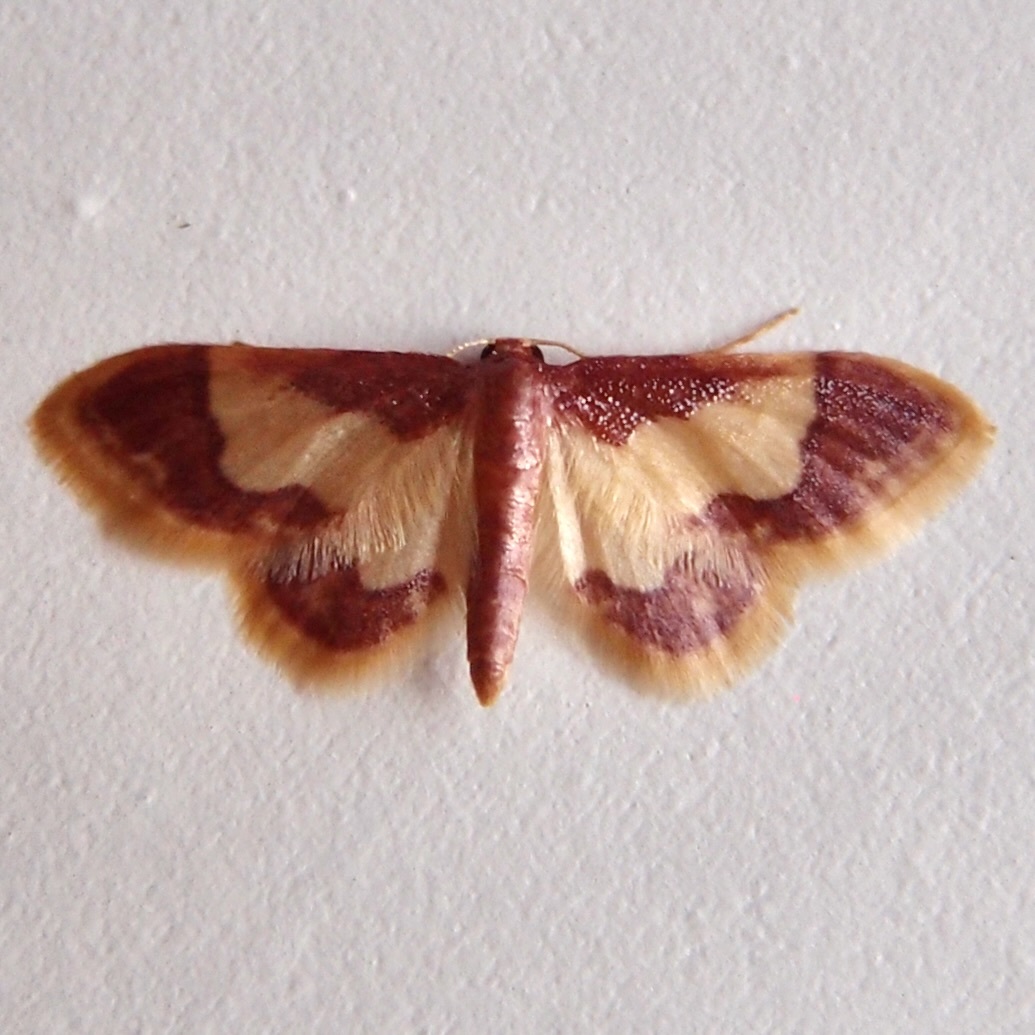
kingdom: Animalia
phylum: Arthropoda
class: Insecta
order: Lepidoptera
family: Geometridae
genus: Idaea
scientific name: Idaea basinta
